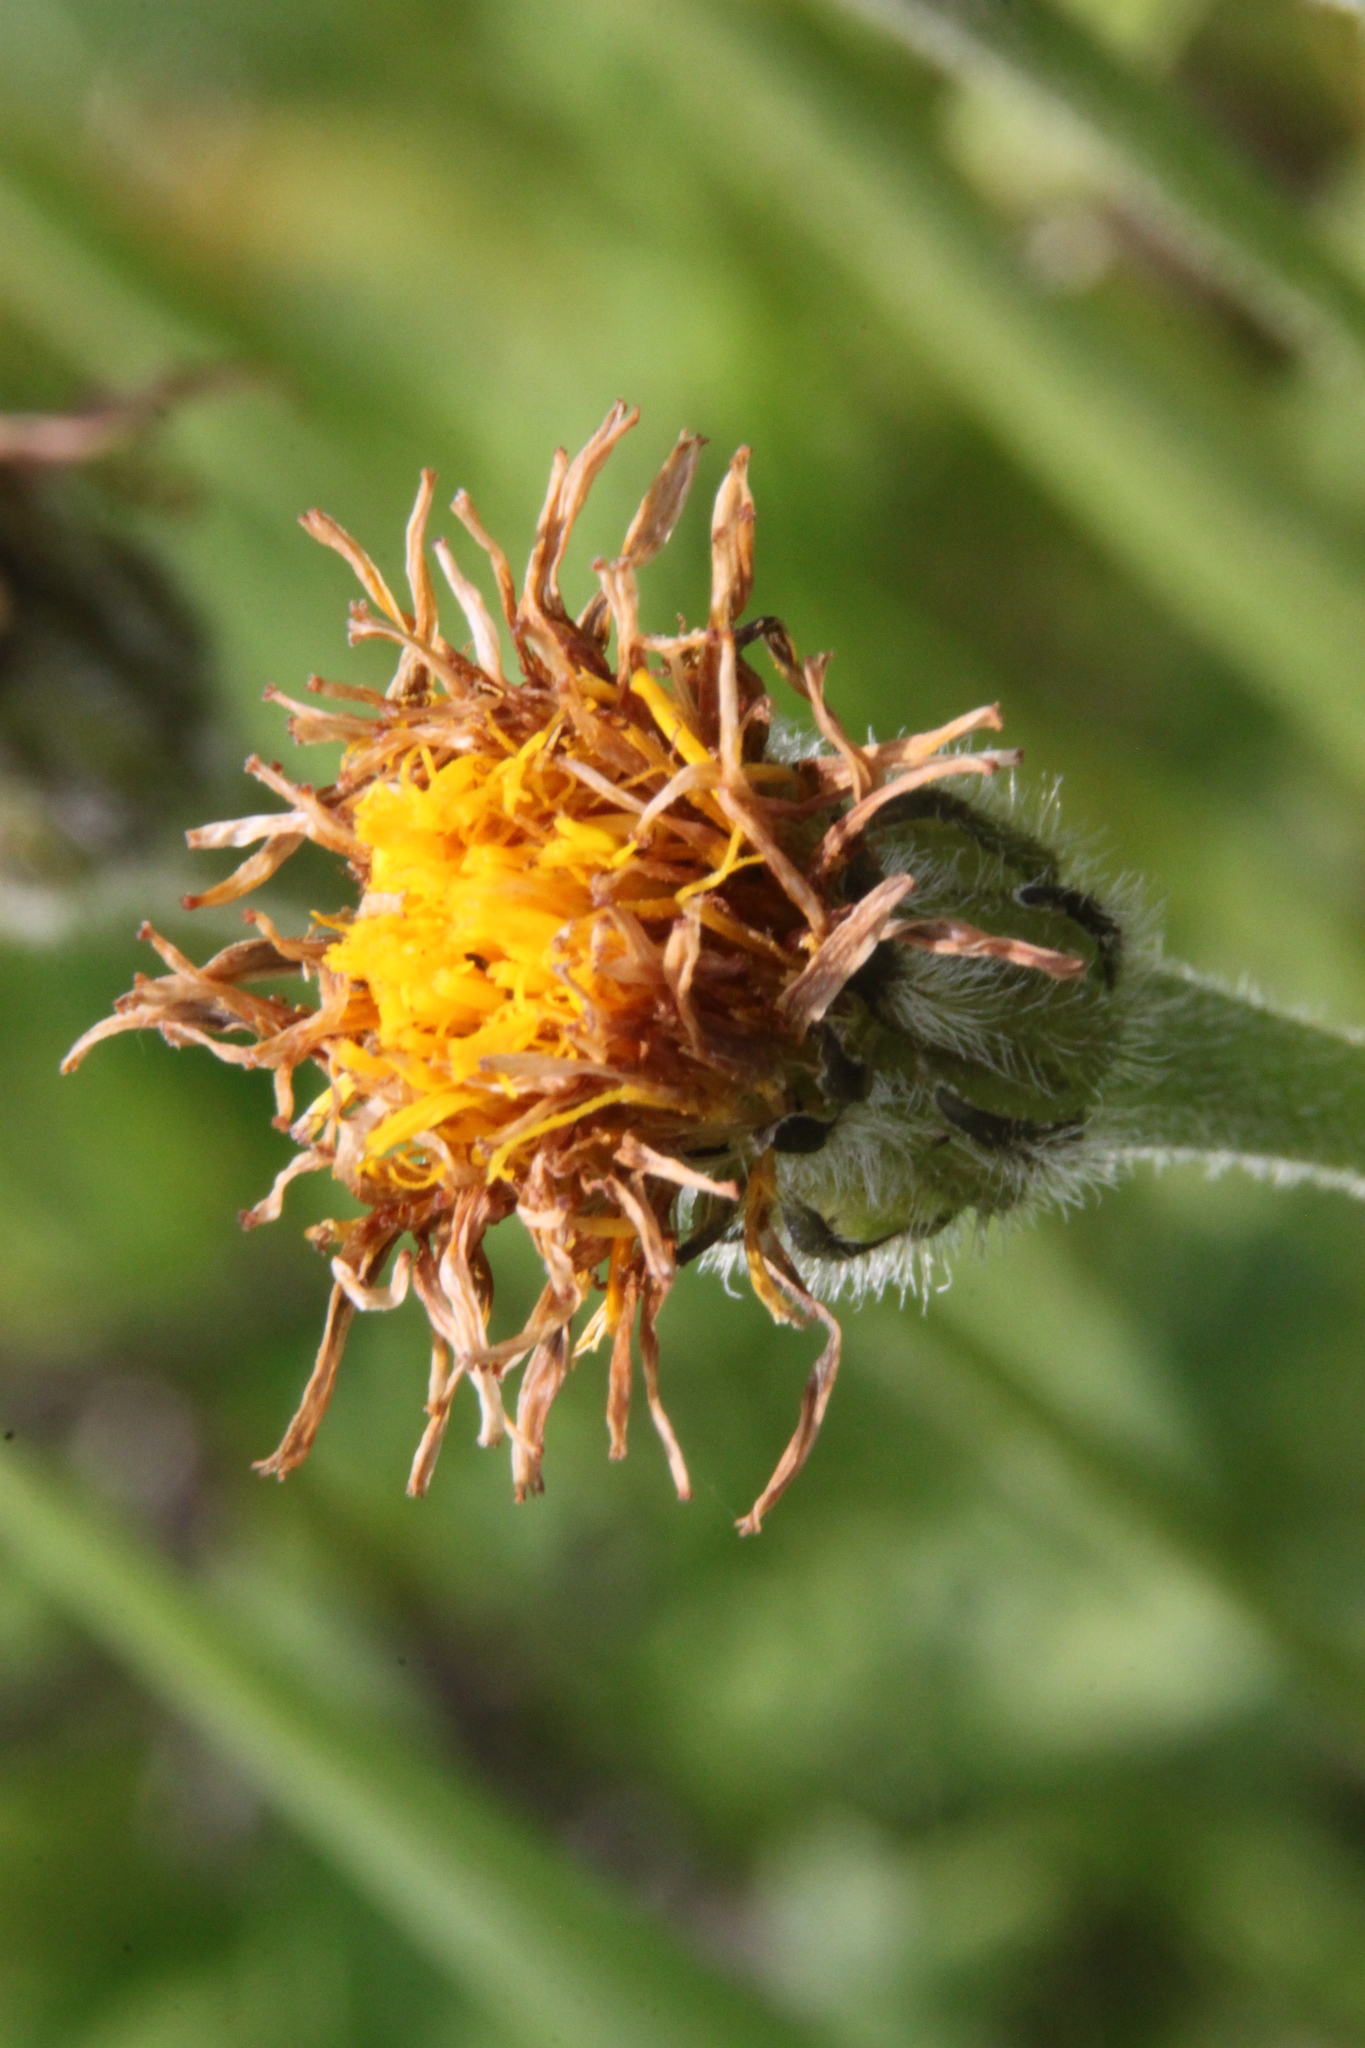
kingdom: Plantae
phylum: Tracheophyta
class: Magnoliopsida
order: Asterales
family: Asteraceae
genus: Leontodon
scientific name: Leontodon hispidus
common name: Rough hawkbit
